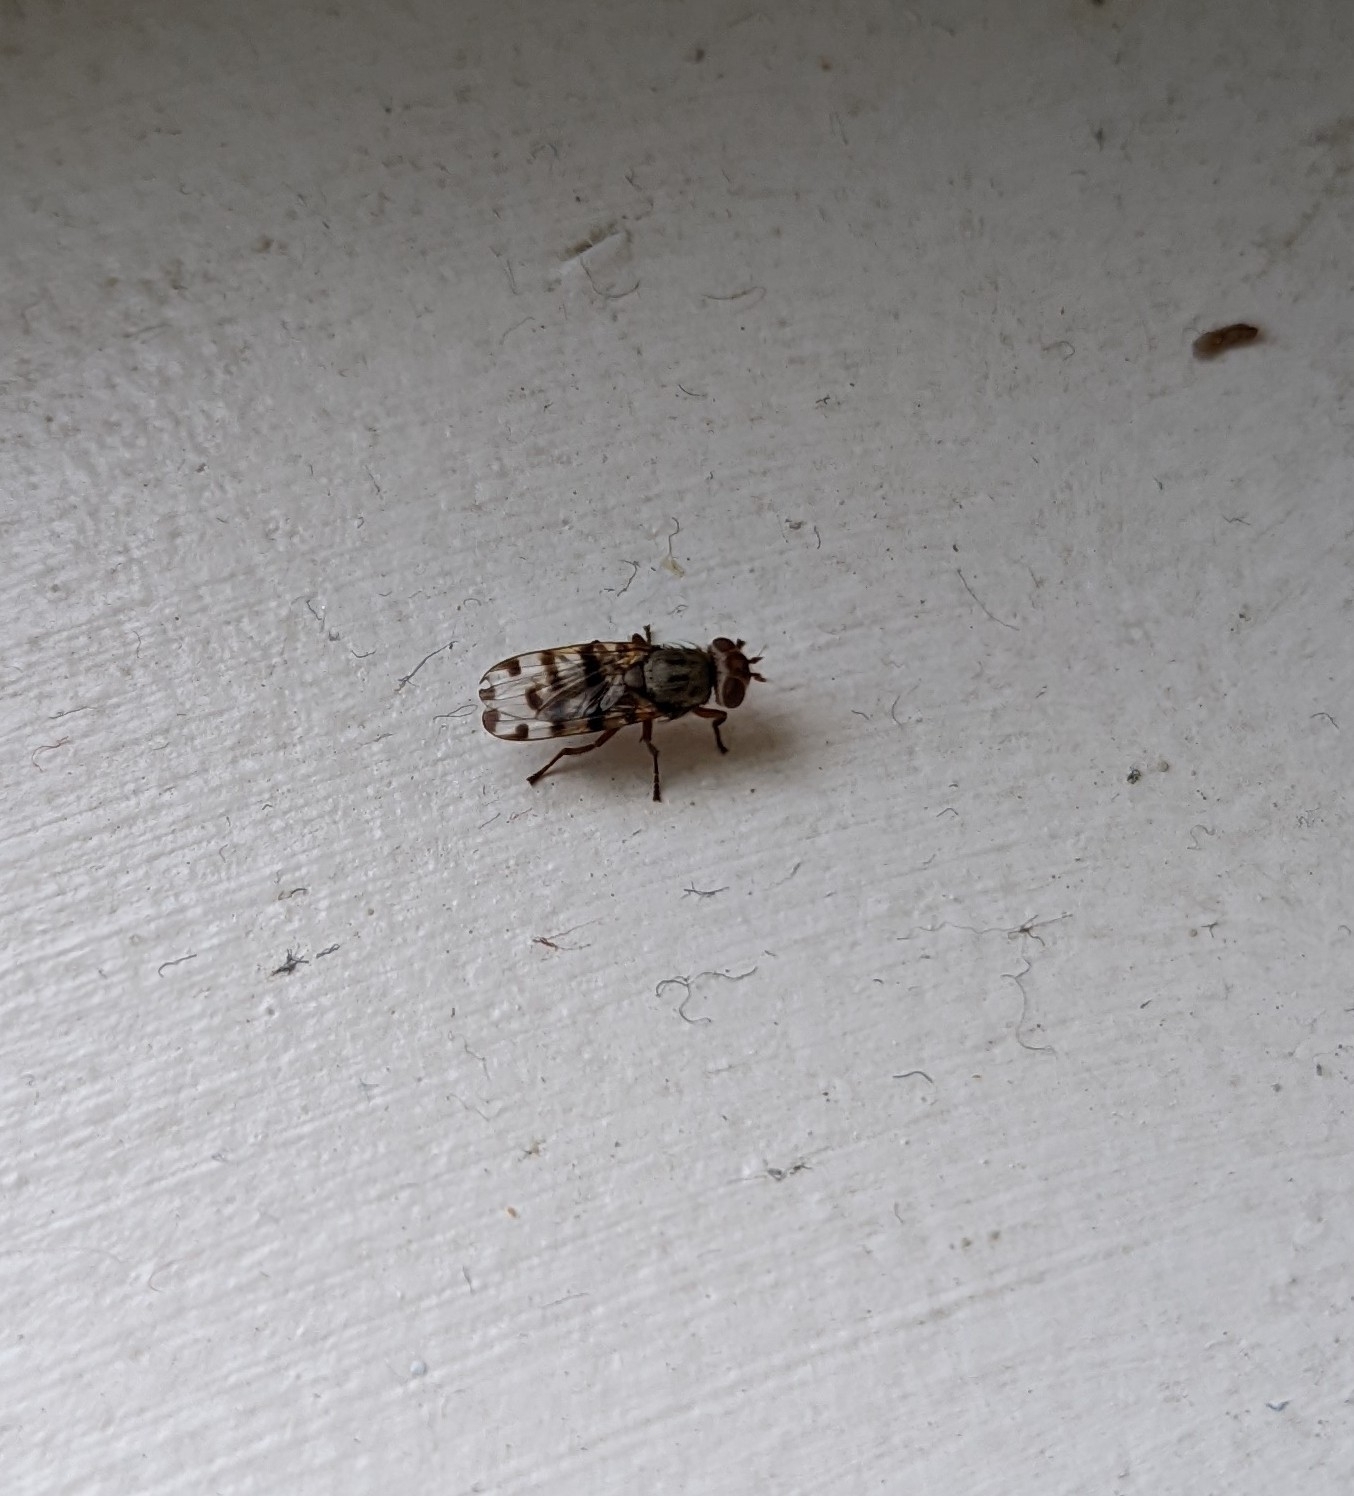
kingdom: Animalia
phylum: Arthropoda
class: Insecta
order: Diptera
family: Ulidiidae
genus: Ceroxys
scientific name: Ceroxys latiusculus
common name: Picture-winged fly
